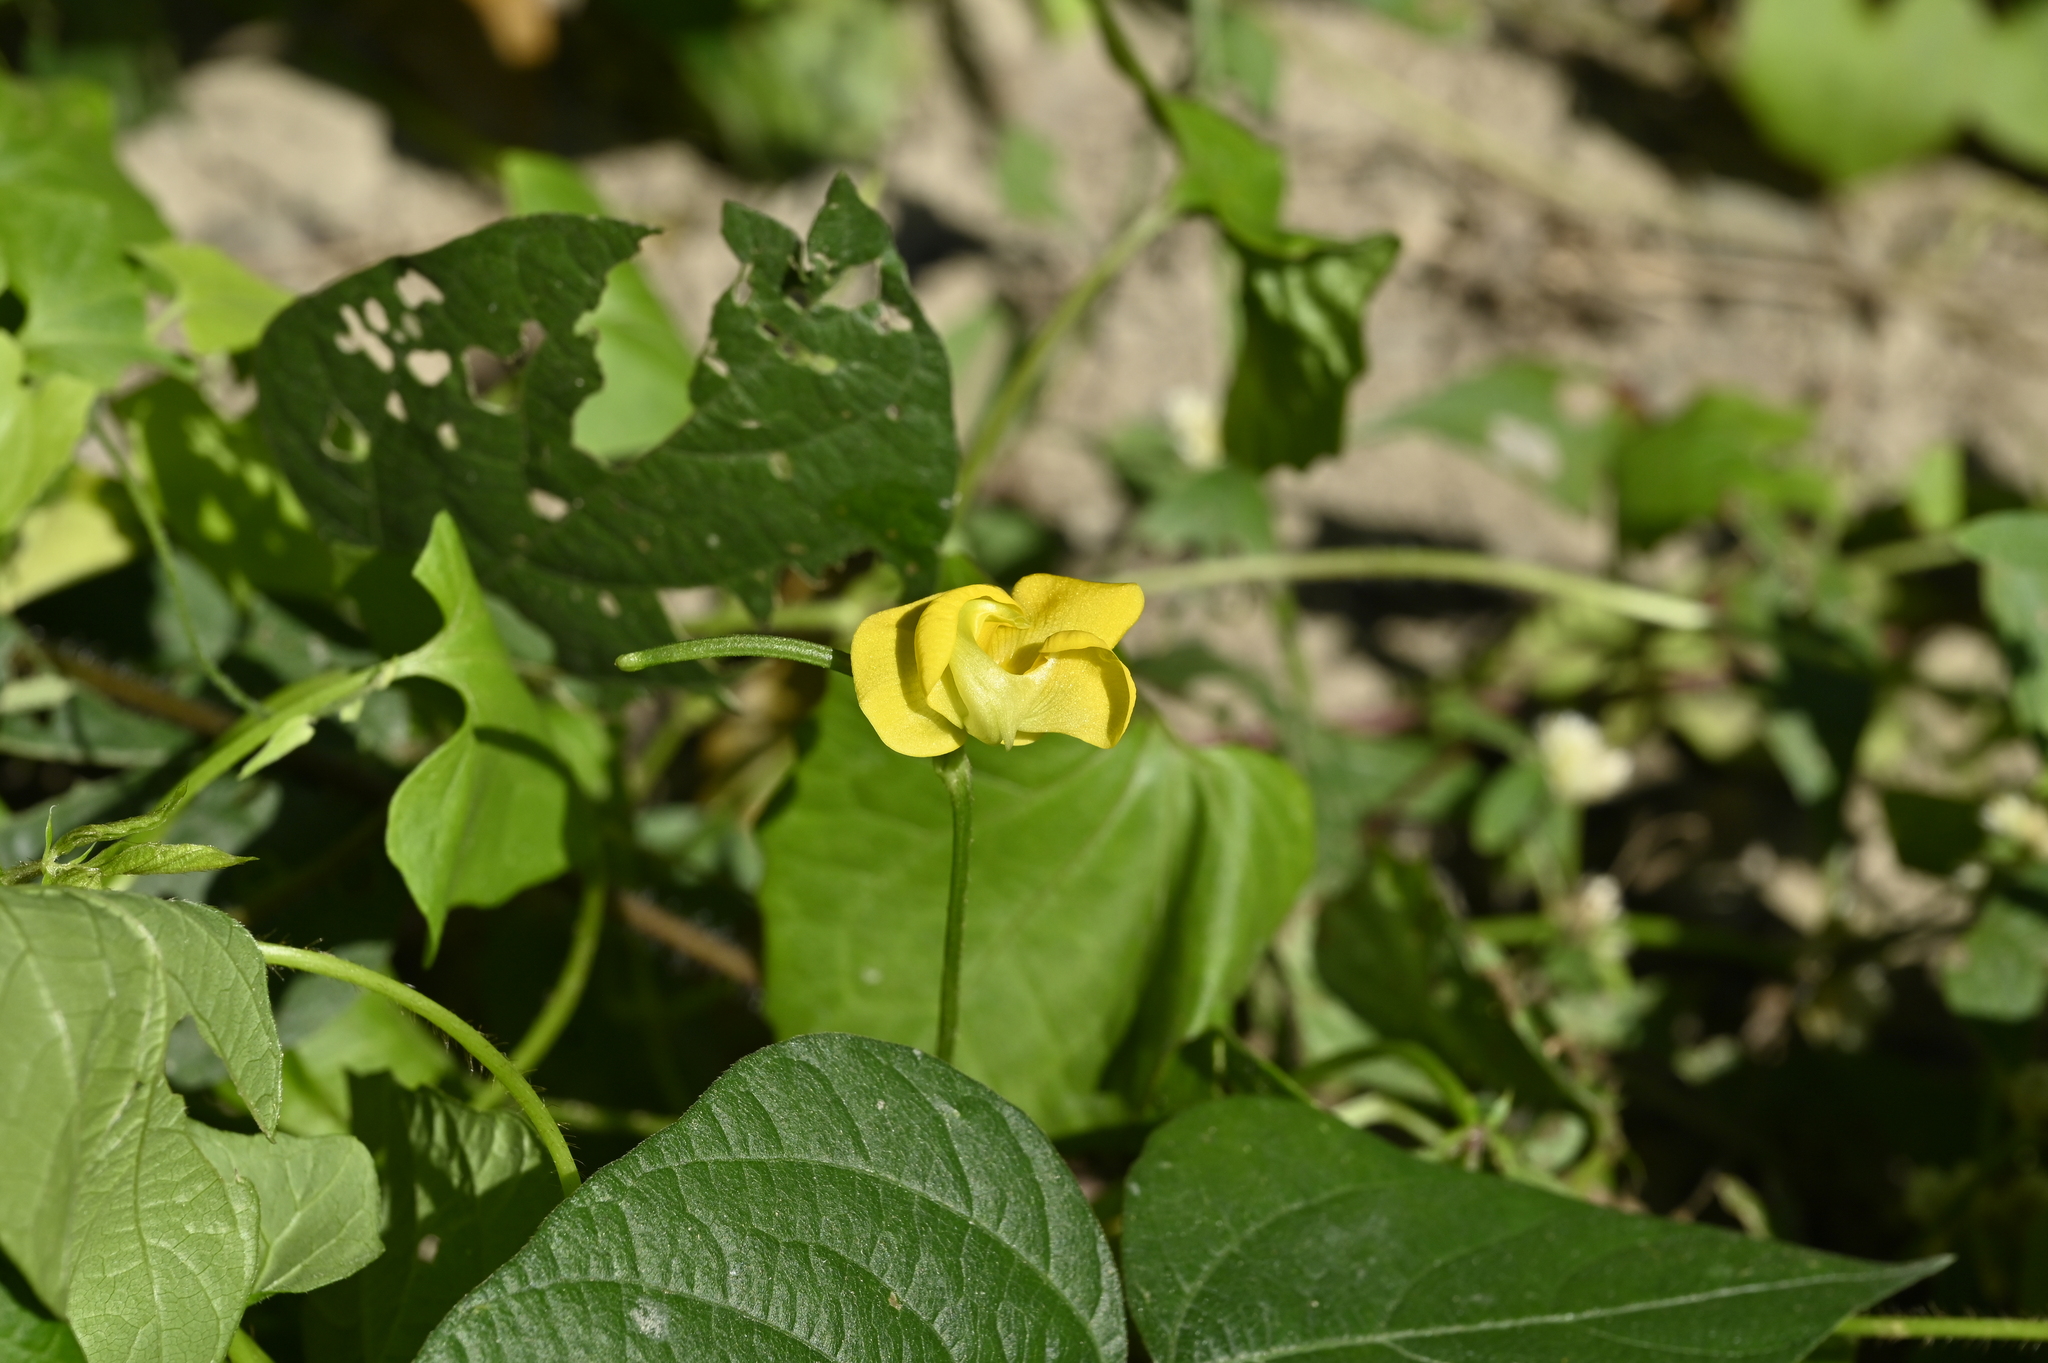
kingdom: Plantae
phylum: Tracheophyta
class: Magnoliopsida
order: Fabales
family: Fabaceae
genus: Vigna
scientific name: Vigna reflexopilosa
